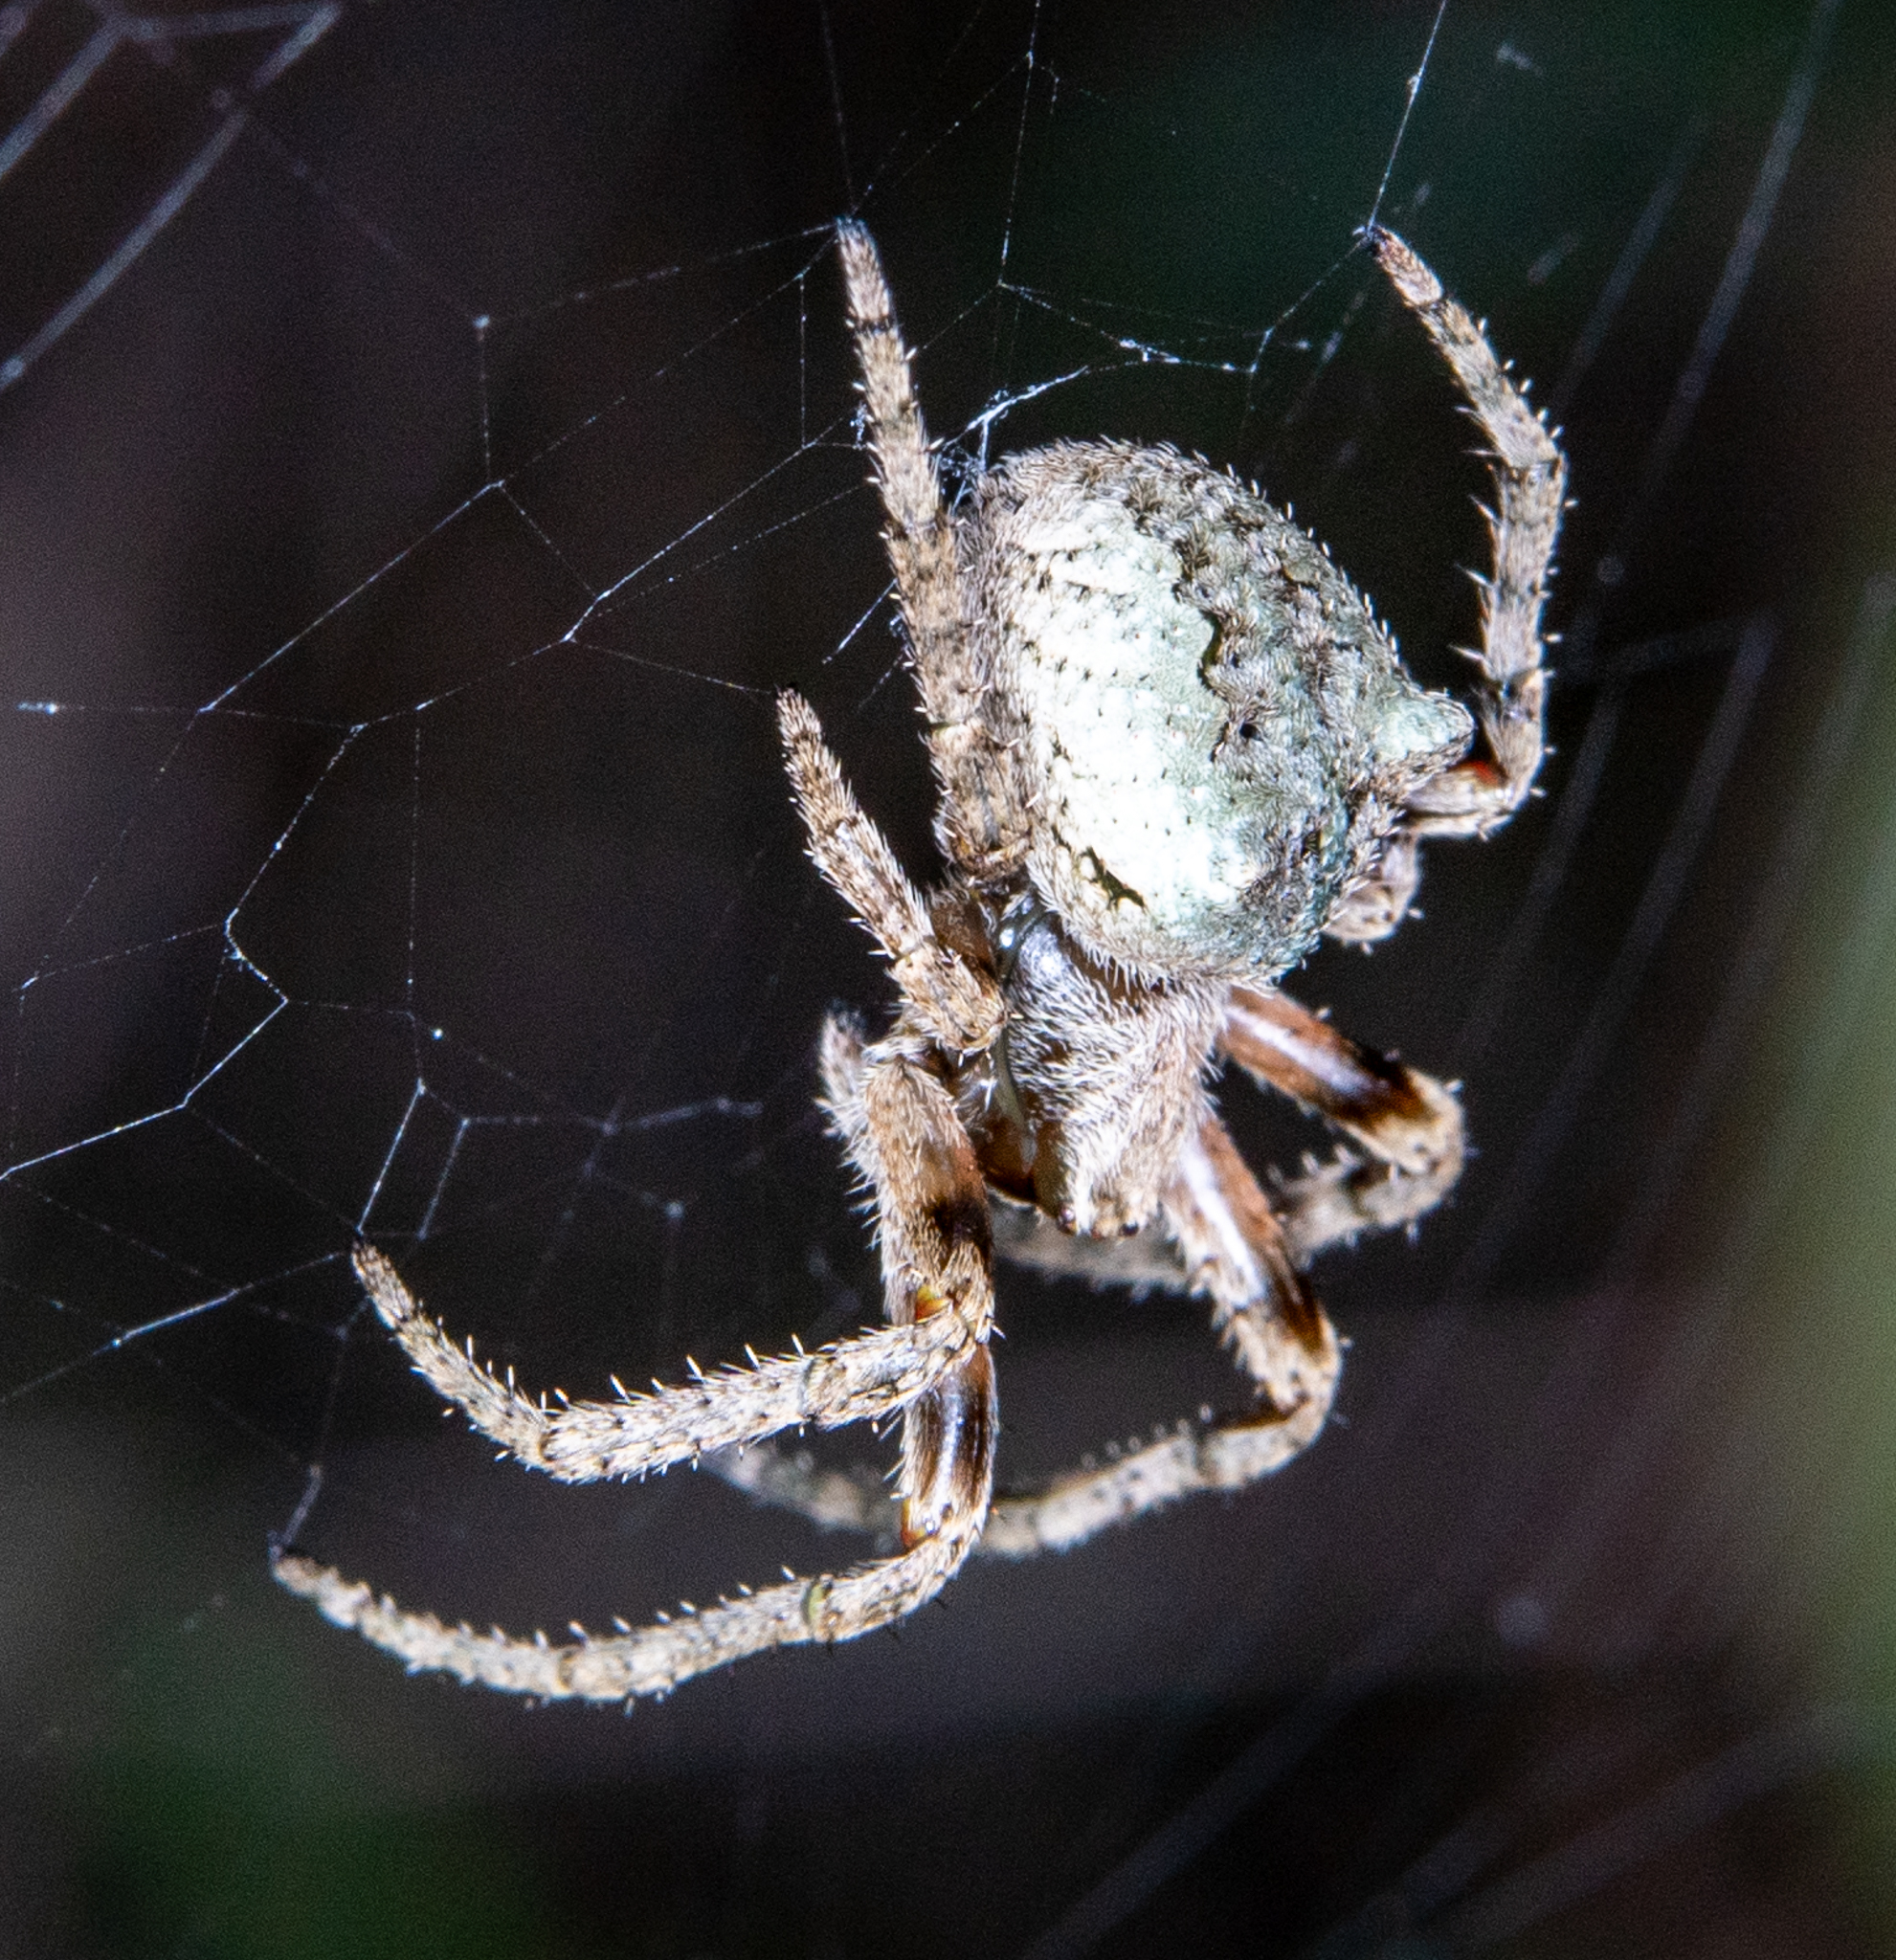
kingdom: Animalia
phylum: Arthropoda
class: Arachnida
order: Araneae
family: Araneidae
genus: Araneus
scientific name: Araneus andrewsi
